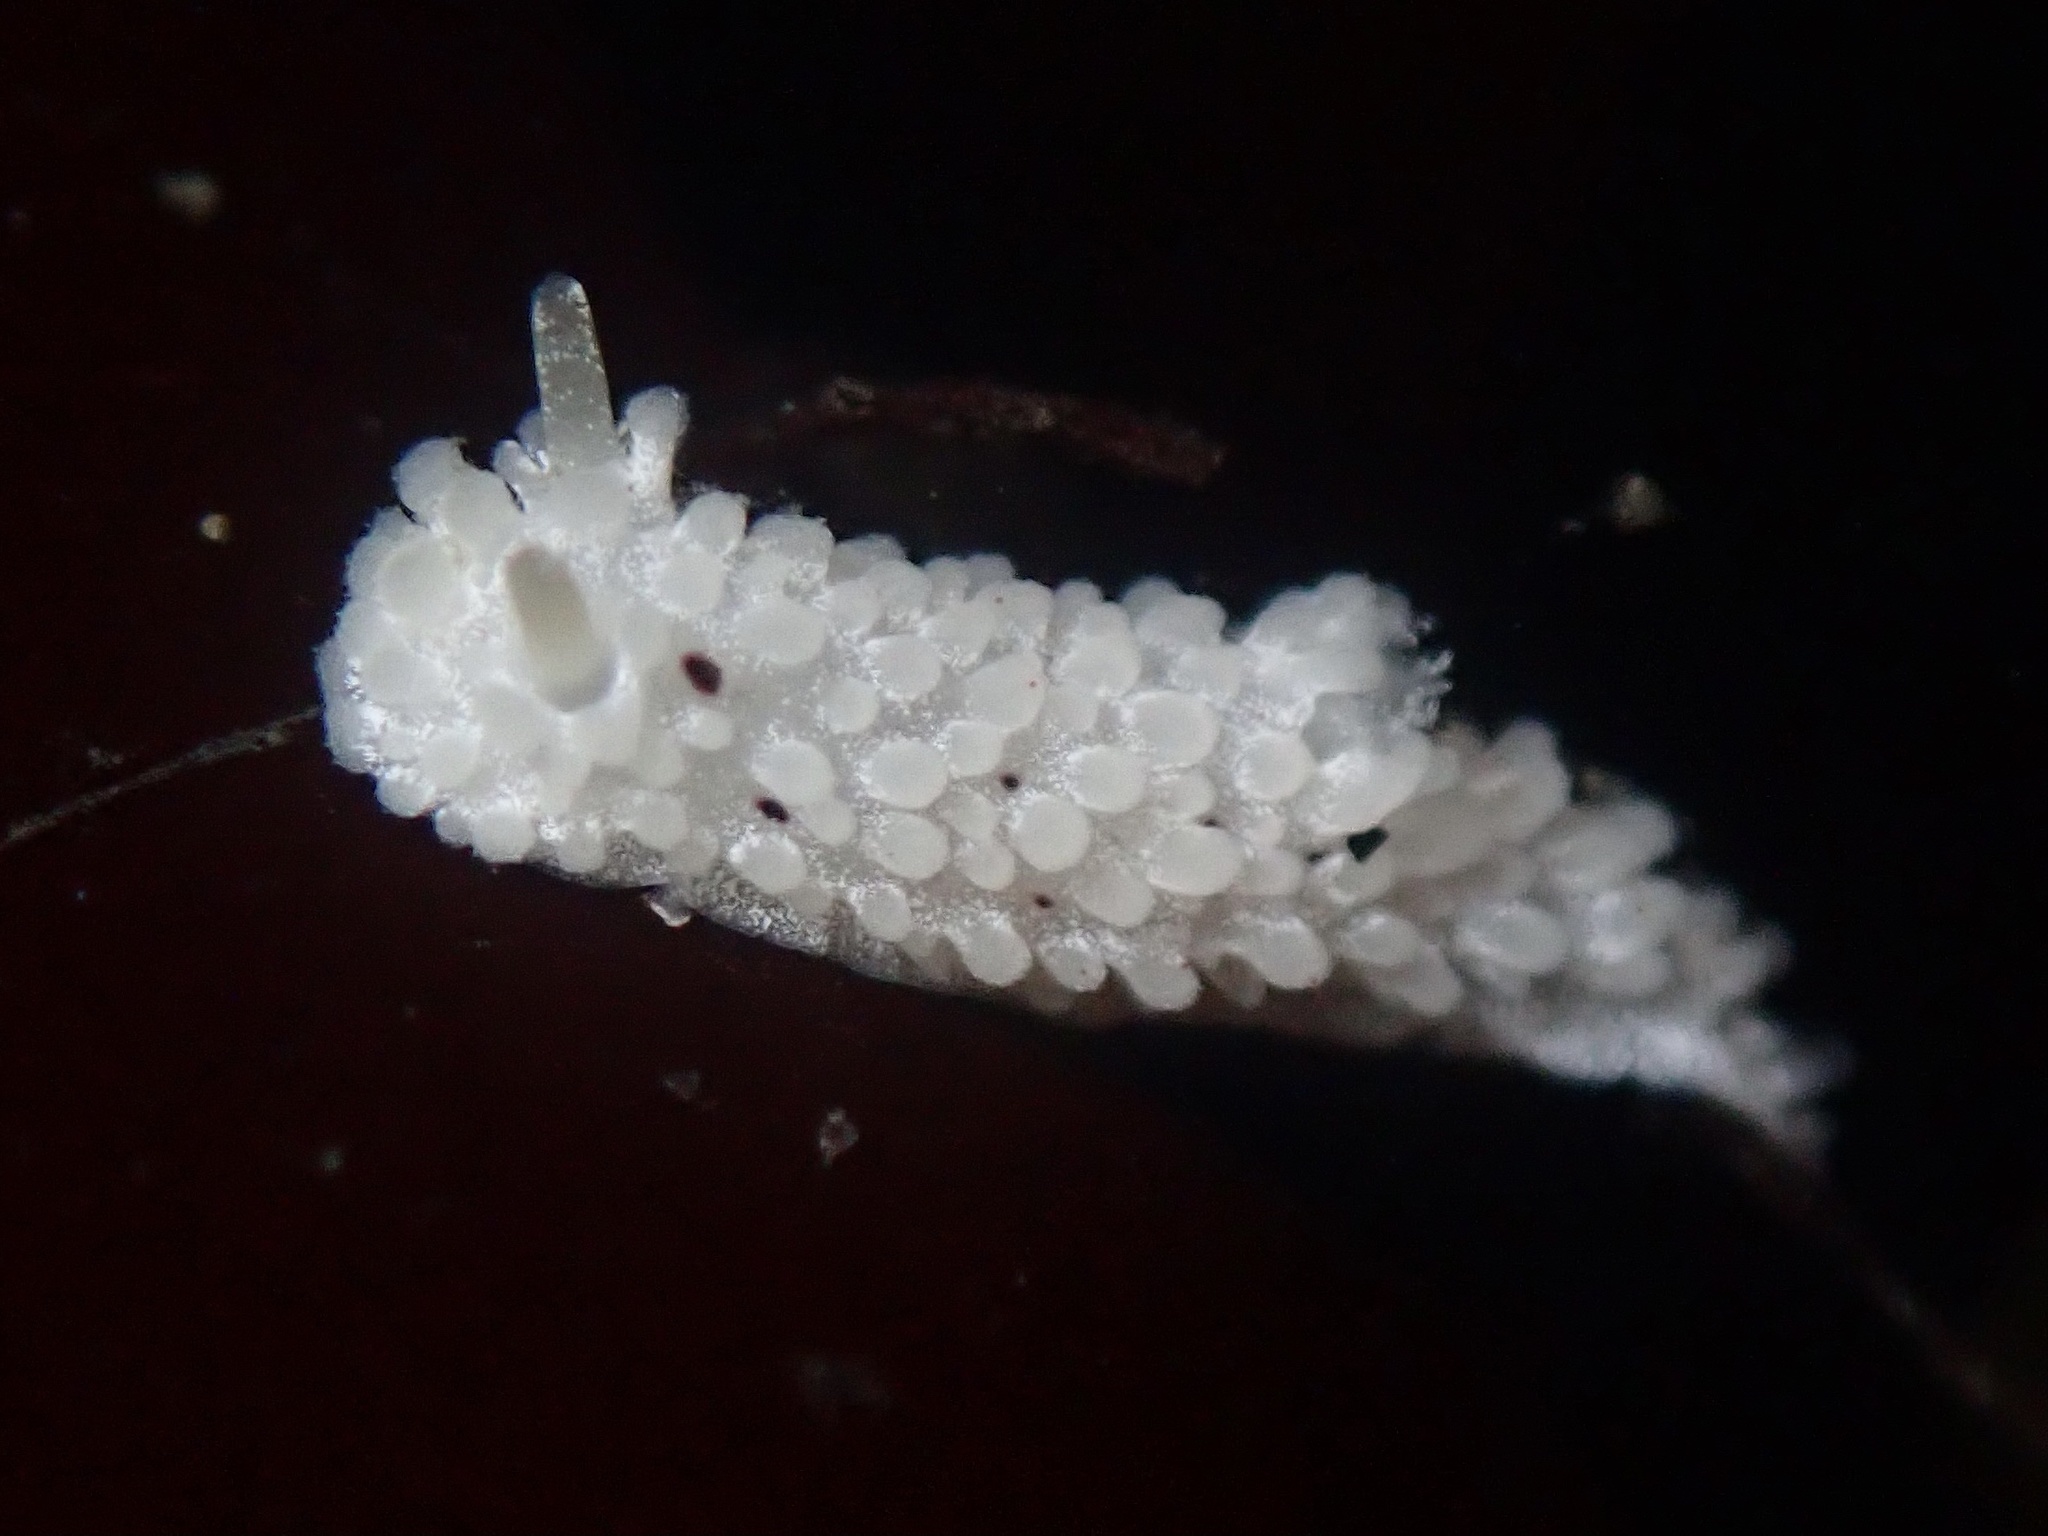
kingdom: Animalia
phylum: Mollusca
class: Gastropoda
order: Nudibranchia
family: Aegiridae
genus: Aegires
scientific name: Aegires albopunctatus
